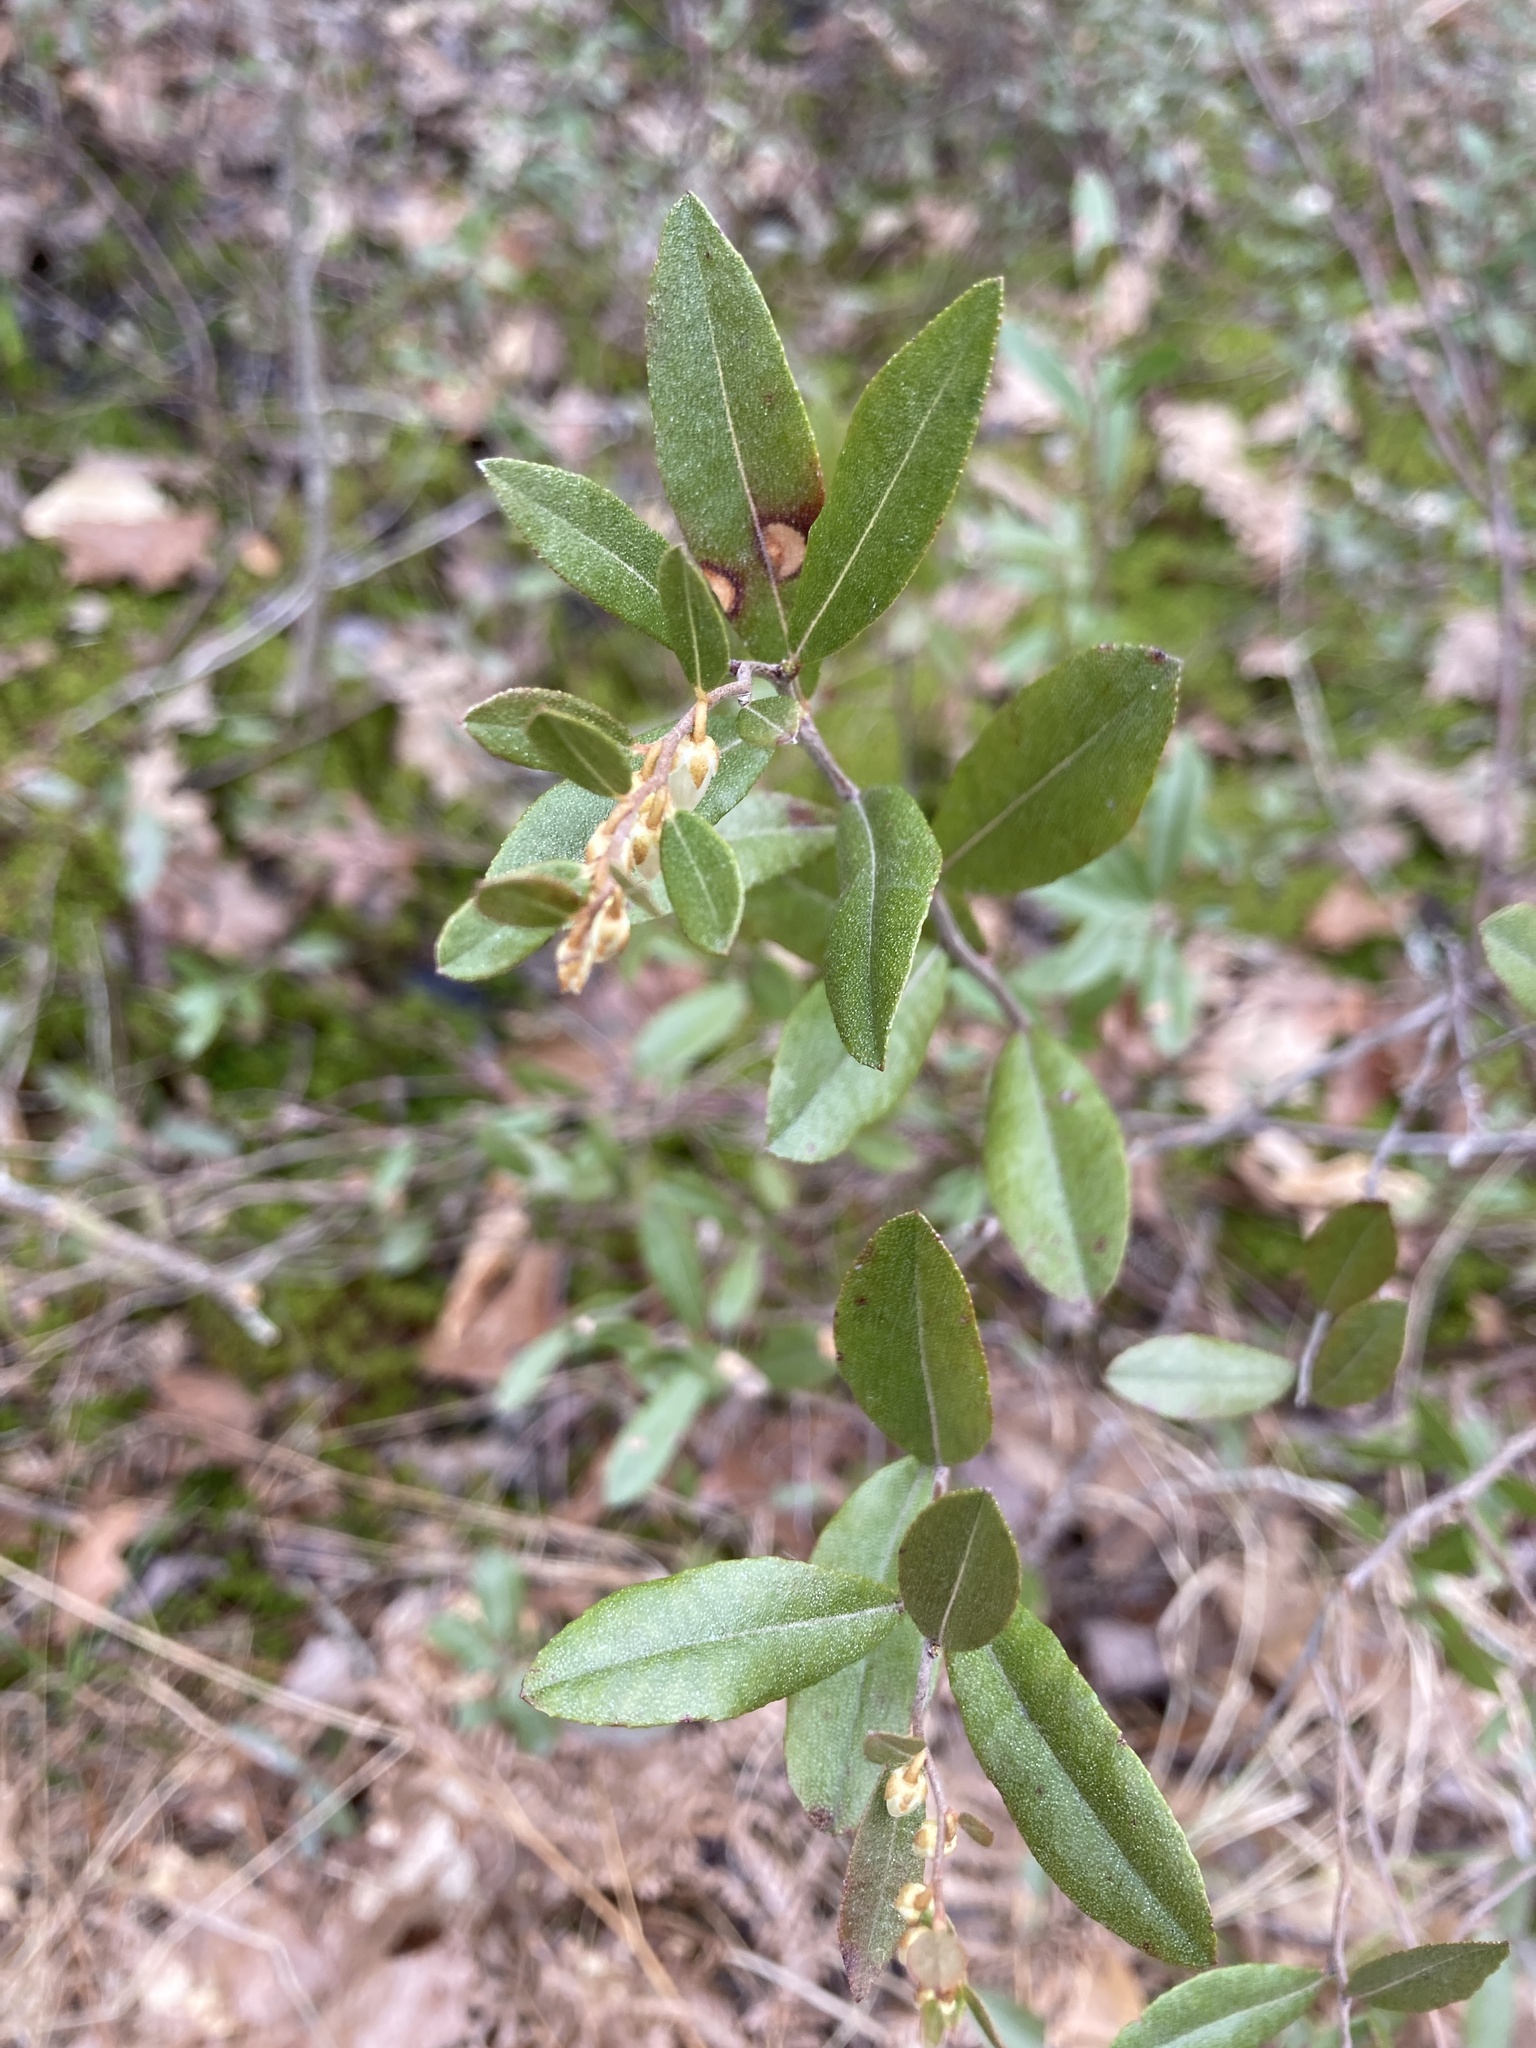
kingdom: Plantae
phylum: Tracheophyta
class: Magnoliopsida
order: Ericales
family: Ericaceae
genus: Chamaedaphne
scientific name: Chamaedaphne calyculata
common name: Leatherleaf
